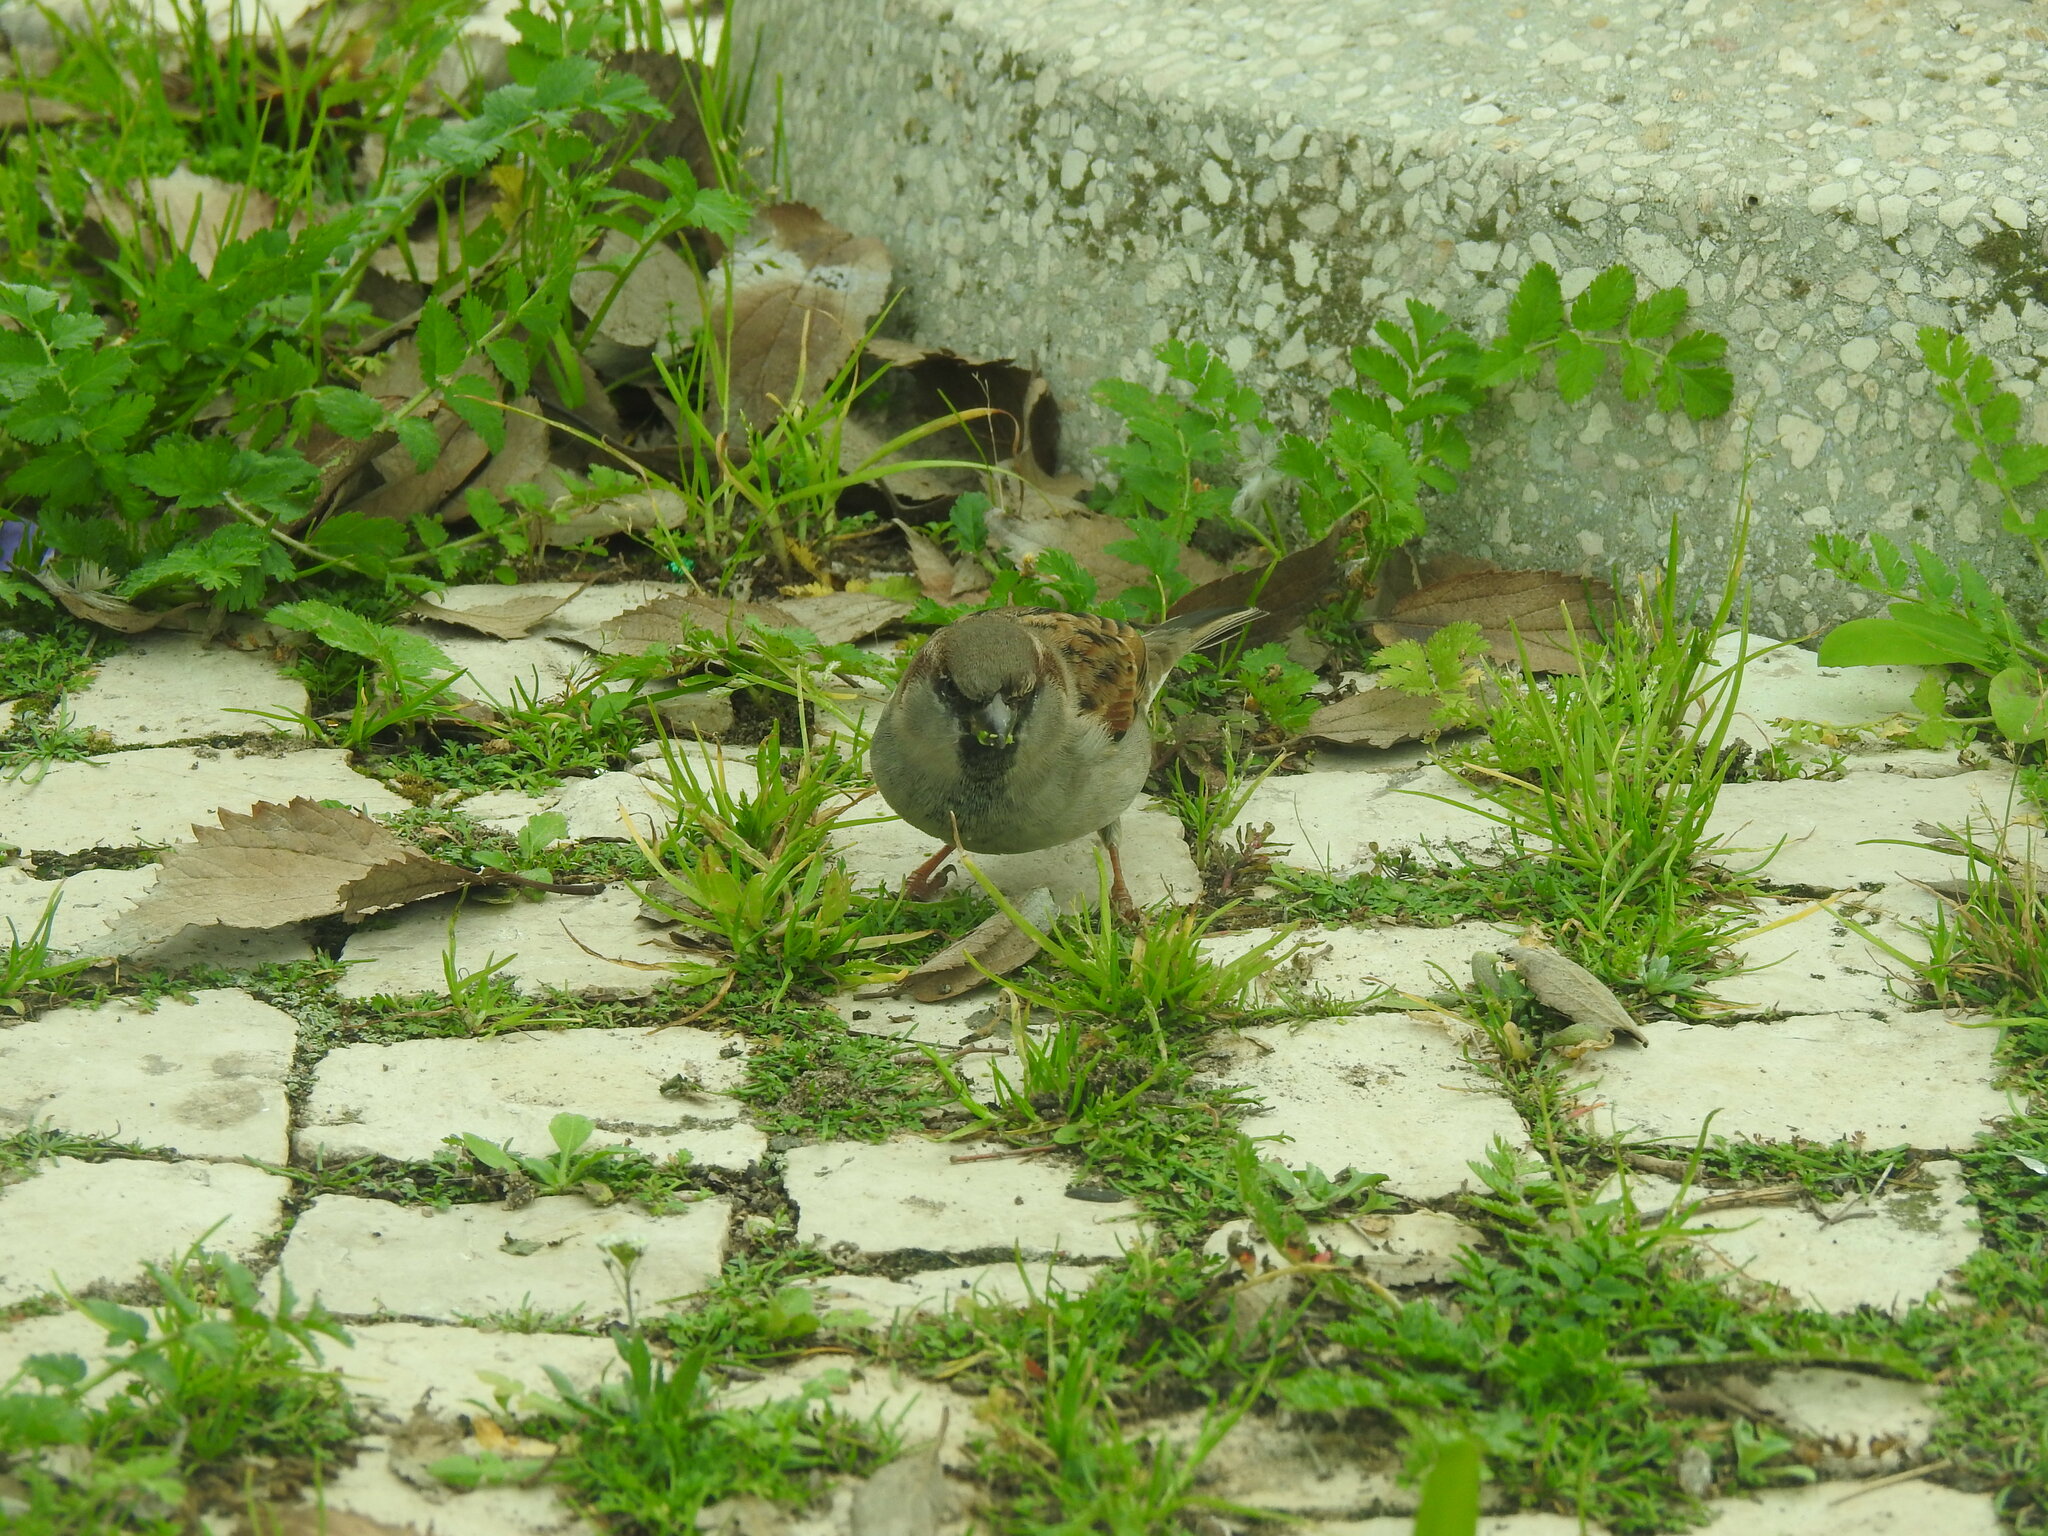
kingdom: Animalia
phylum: Chordata
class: Aves
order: Passeriformes
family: Passeridae
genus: Passer
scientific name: Passer domesticus
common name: House sparrow
